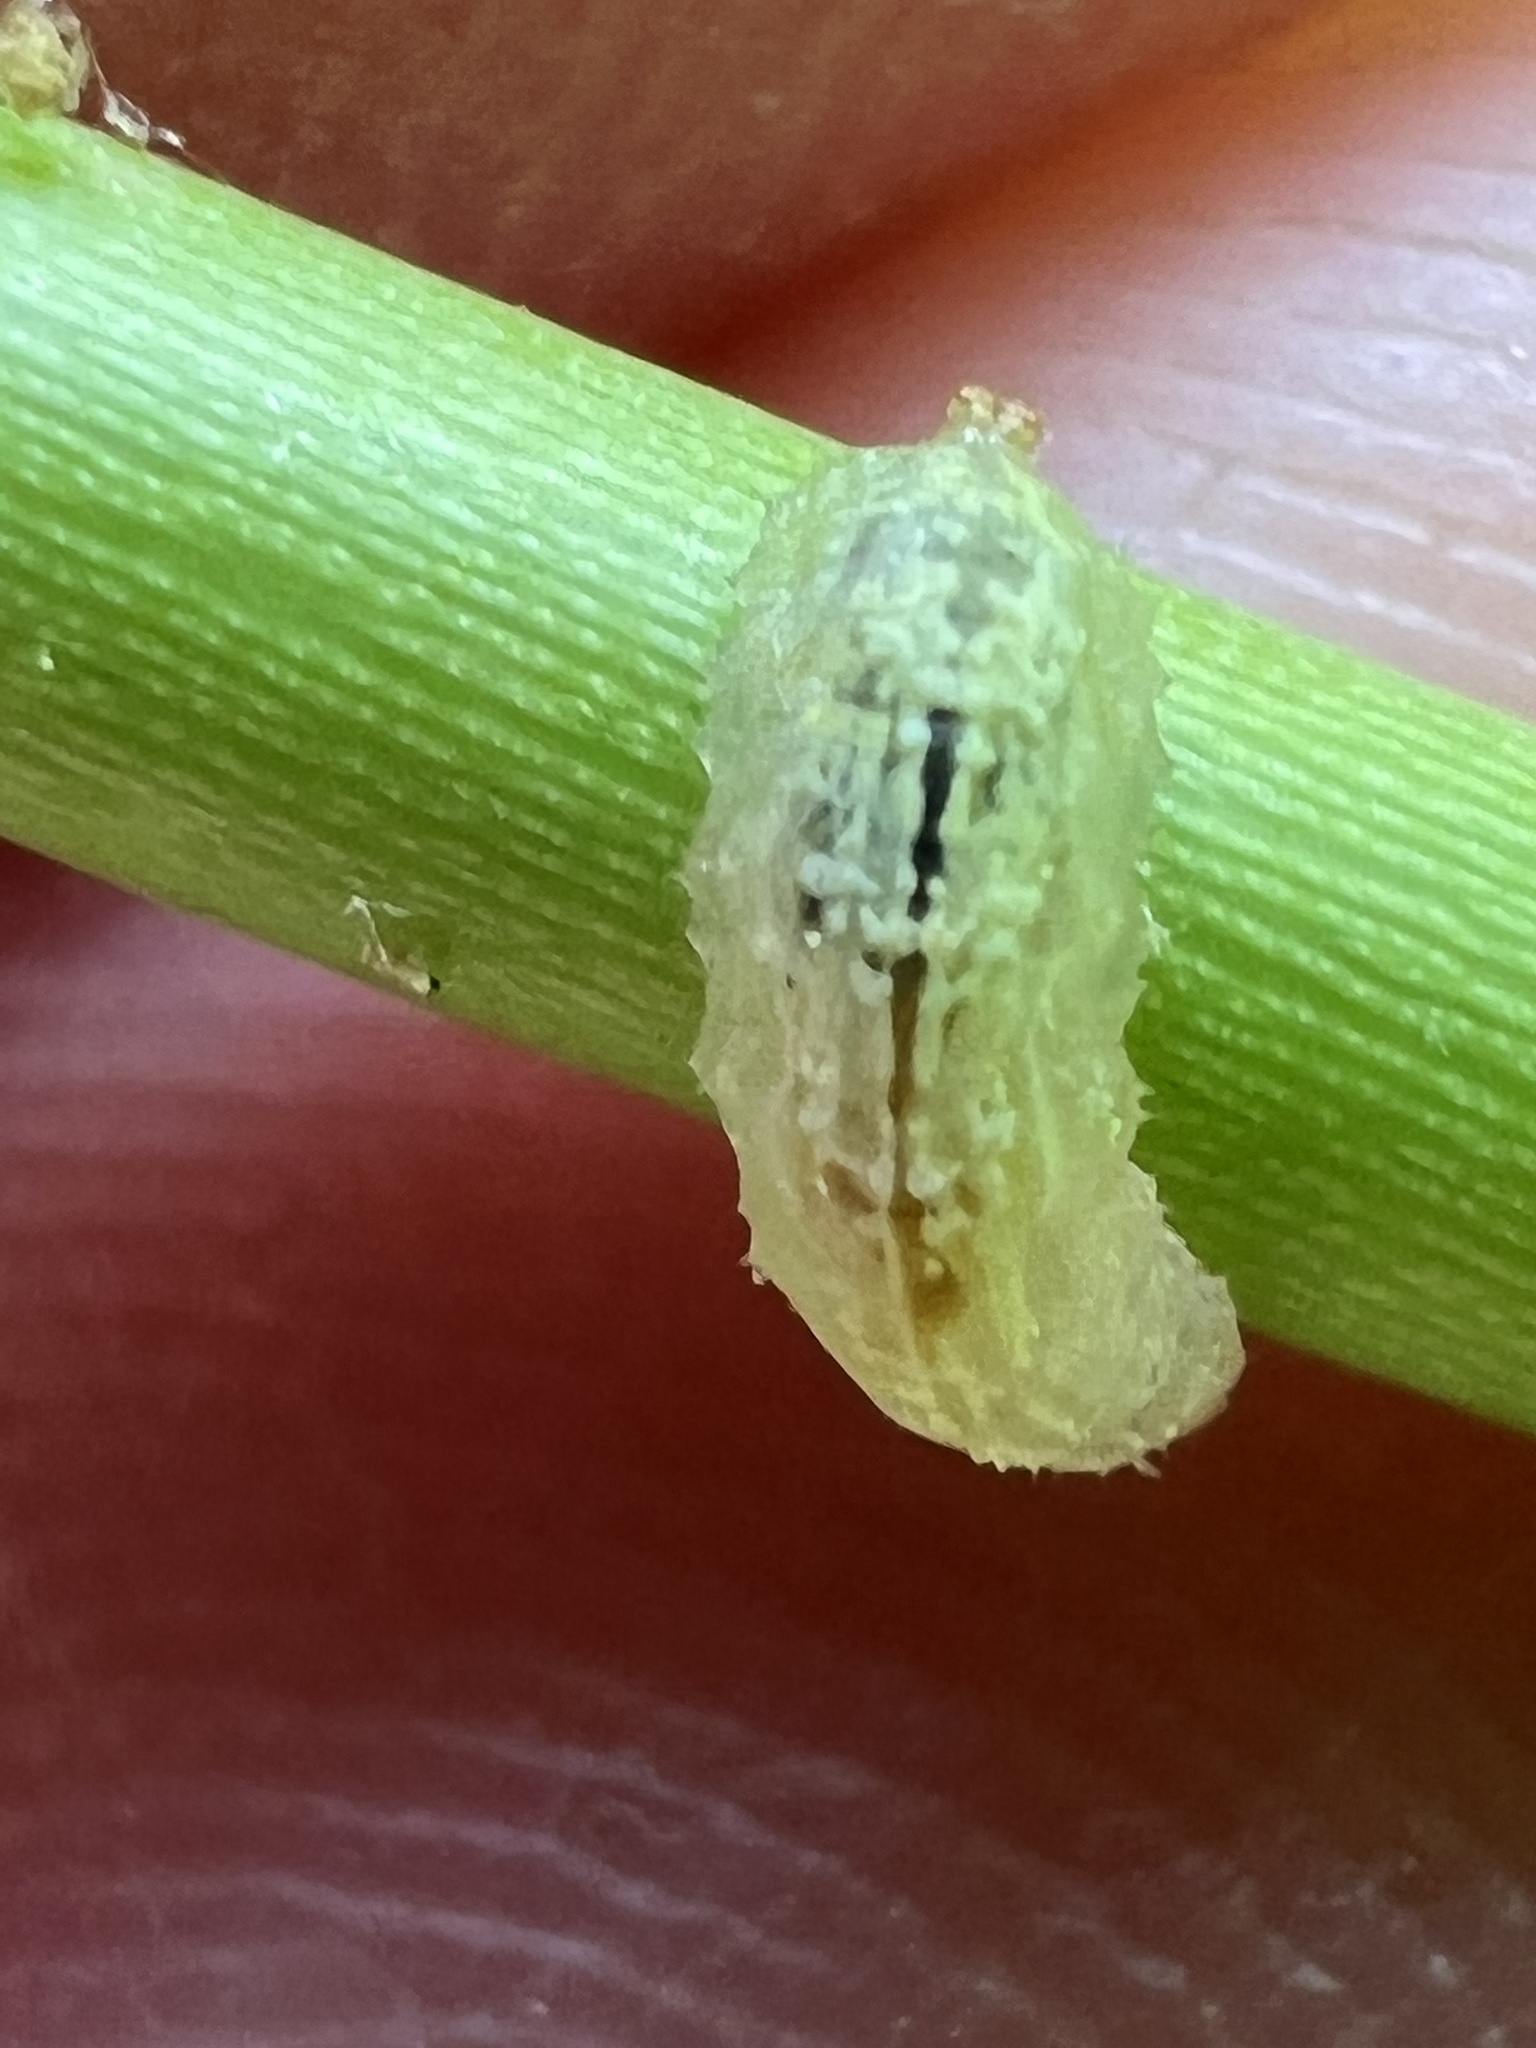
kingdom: Animalia
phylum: Arthropoda
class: Insecta
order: Diptera
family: Syrphidae
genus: Syrphus
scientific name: Syrphus
